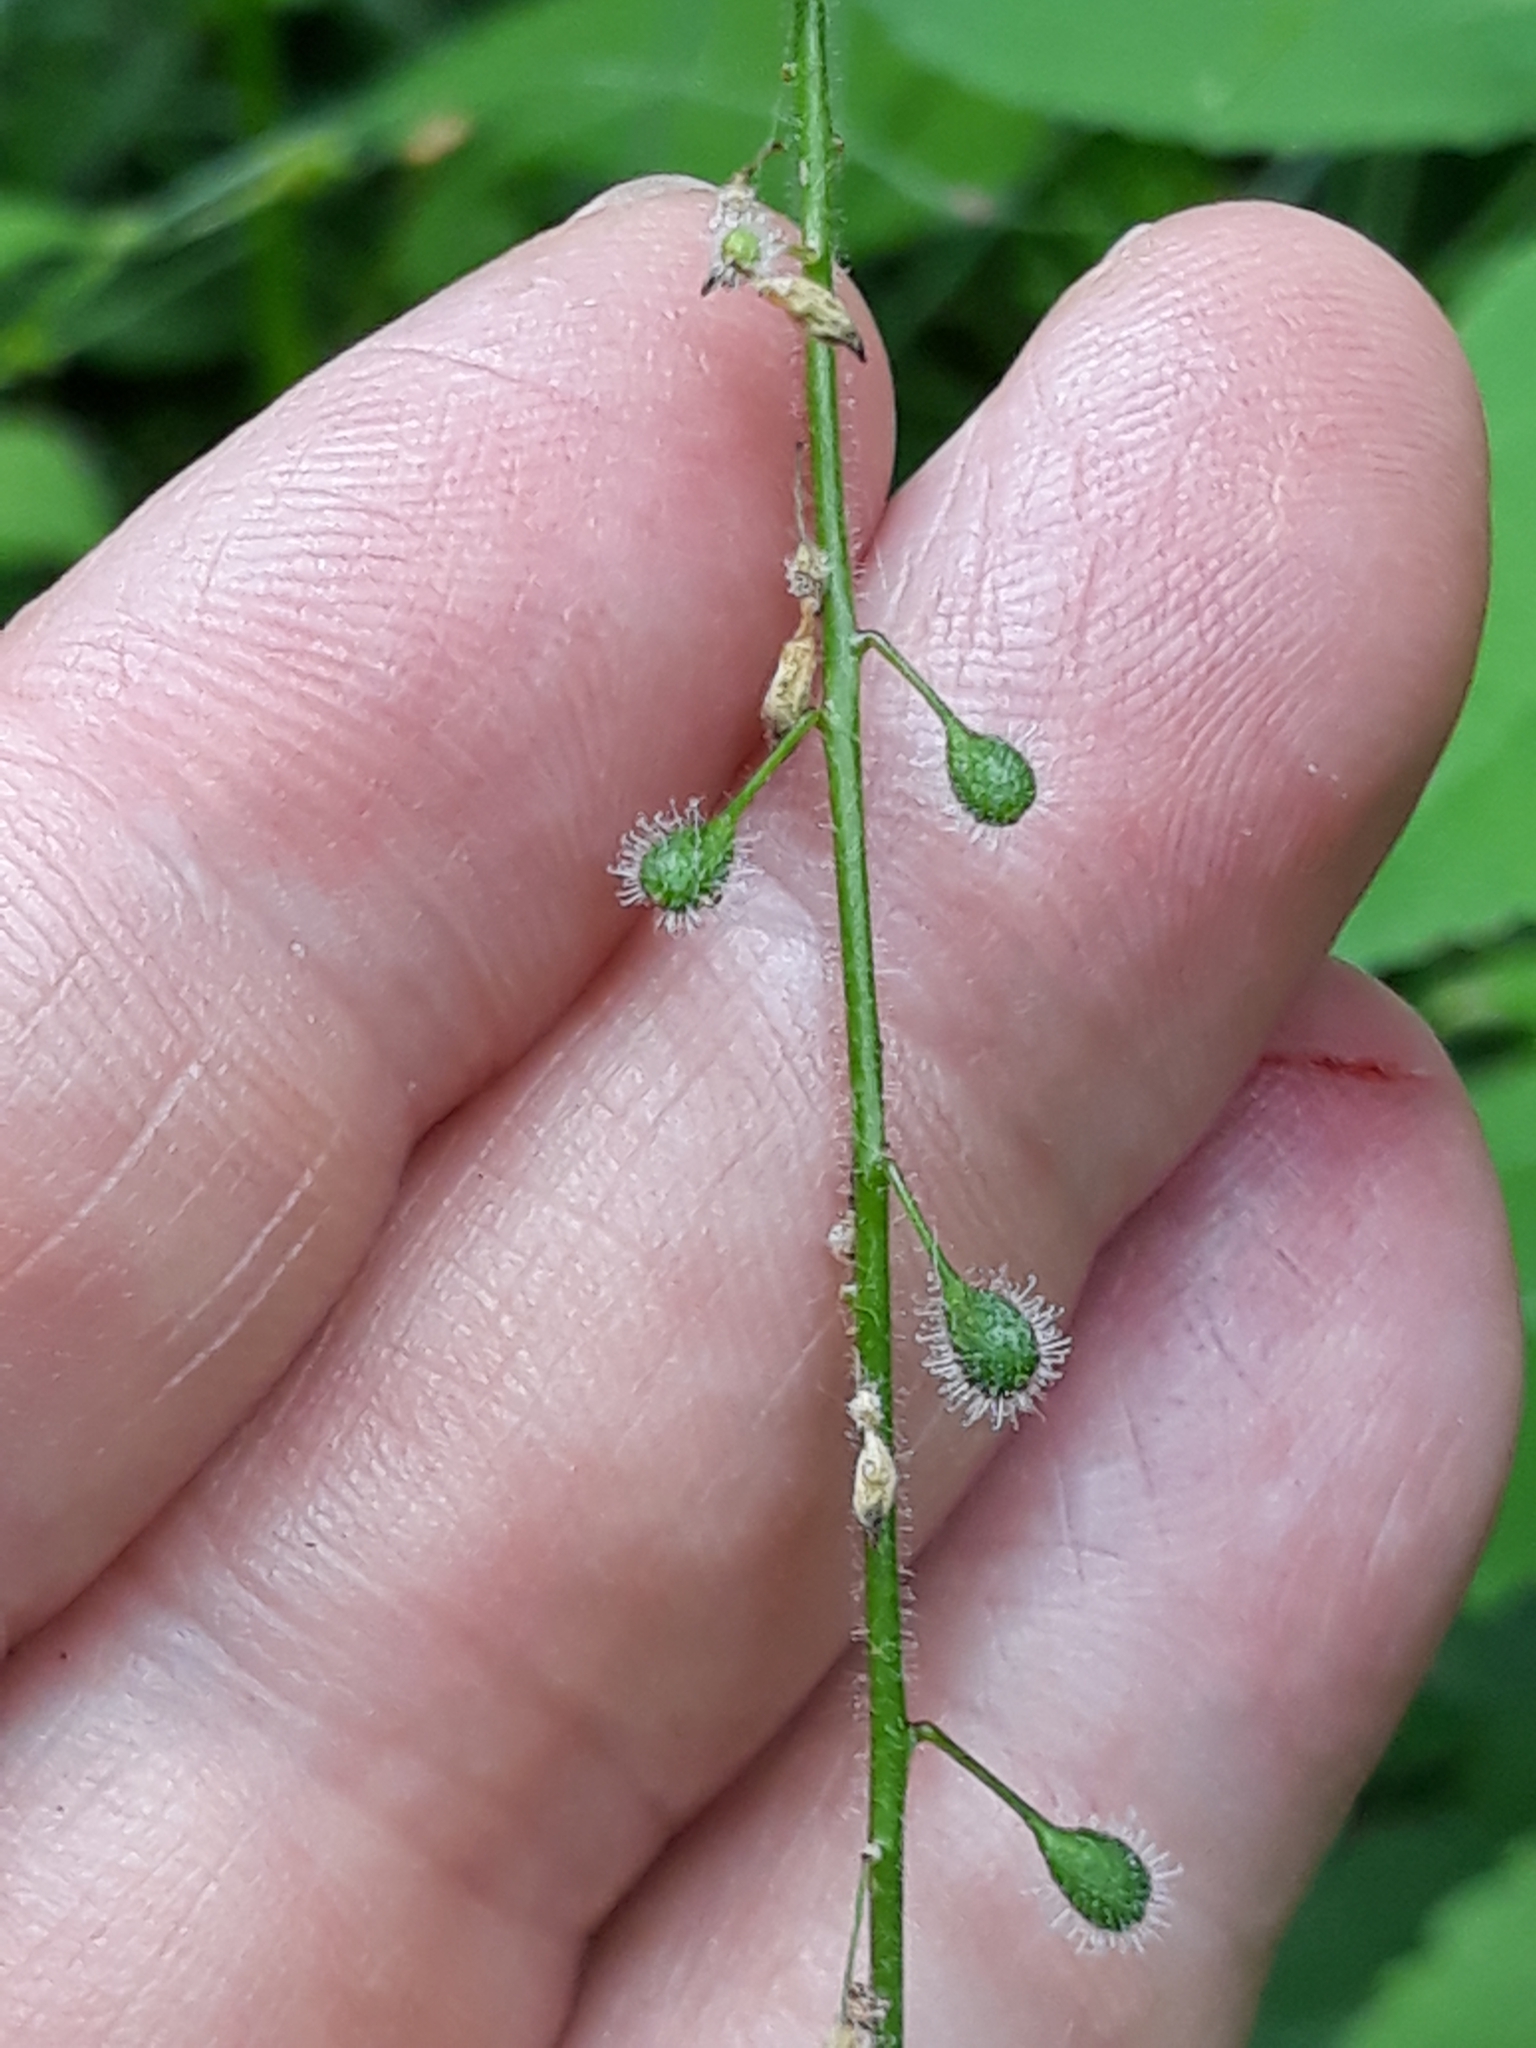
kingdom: Plantae
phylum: Tracheophyta
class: Magnoliopsida
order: Myrtales
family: Onagraceae
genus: Circaea
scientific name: Circaea lutetiana
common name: Enchanter's-nightshade
